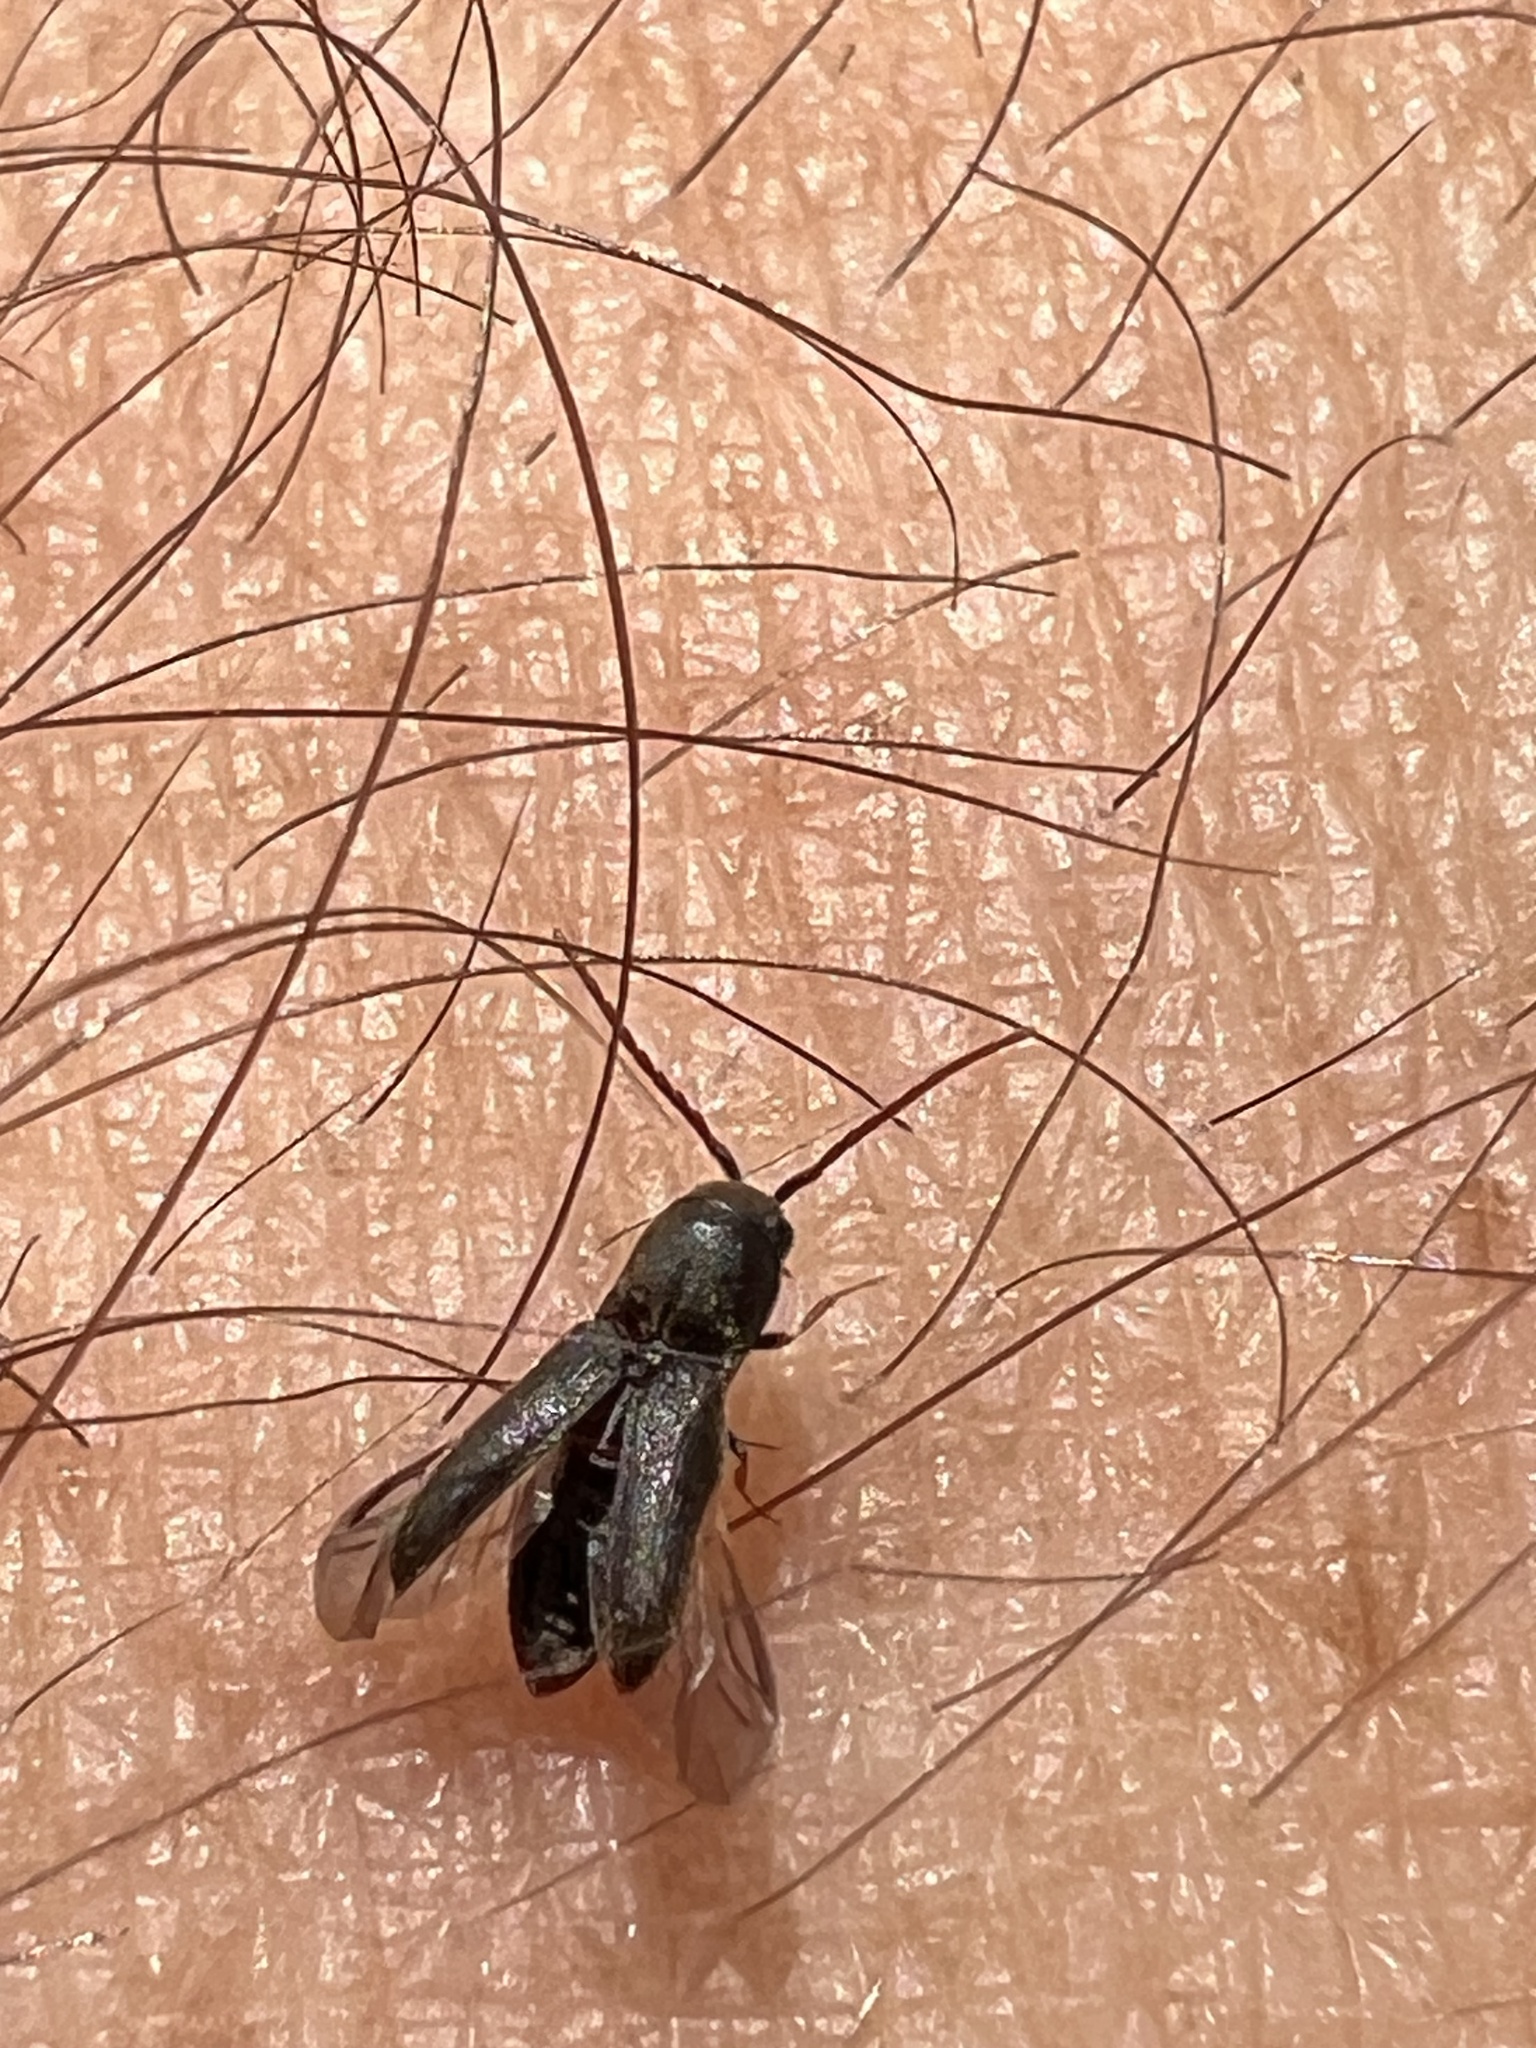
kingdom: Animalia
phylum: Arthropoda
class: Insecta
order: Coleoptera
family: Eucnemidae
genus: Rhagomicrus
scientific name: Rhagomicrus humeralis
